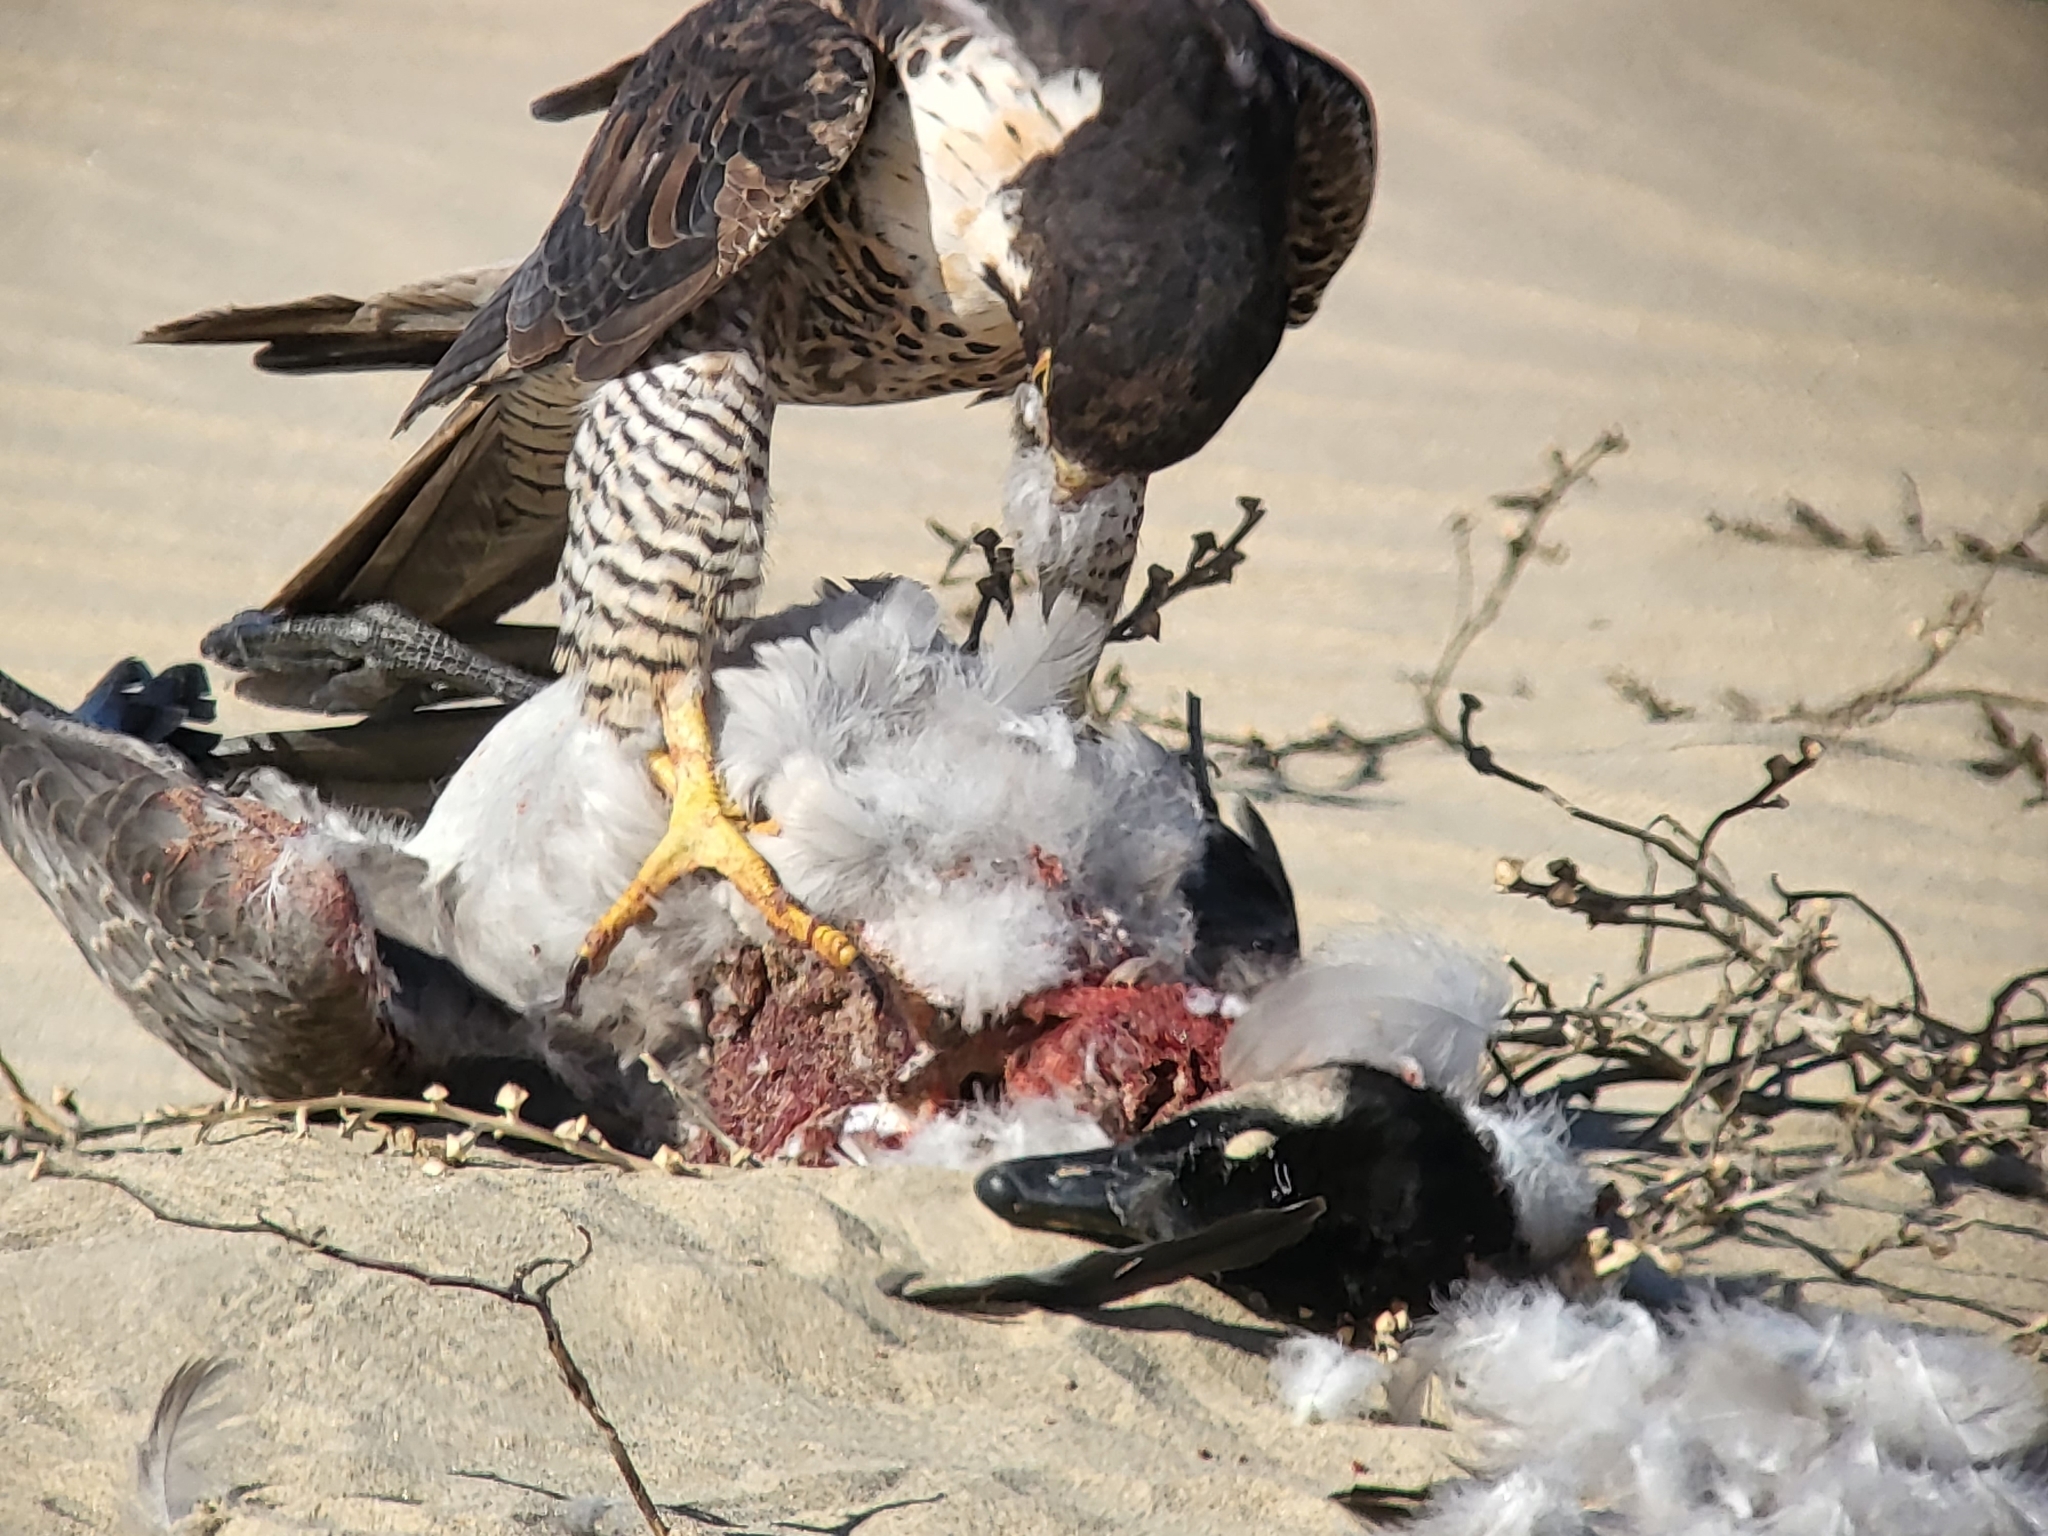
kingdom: Animalia
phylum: Chordata
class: Aves
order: Anseriformes
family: Anatidae
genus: Branta
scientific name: Branta hutchinsii
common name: Cackling goose
